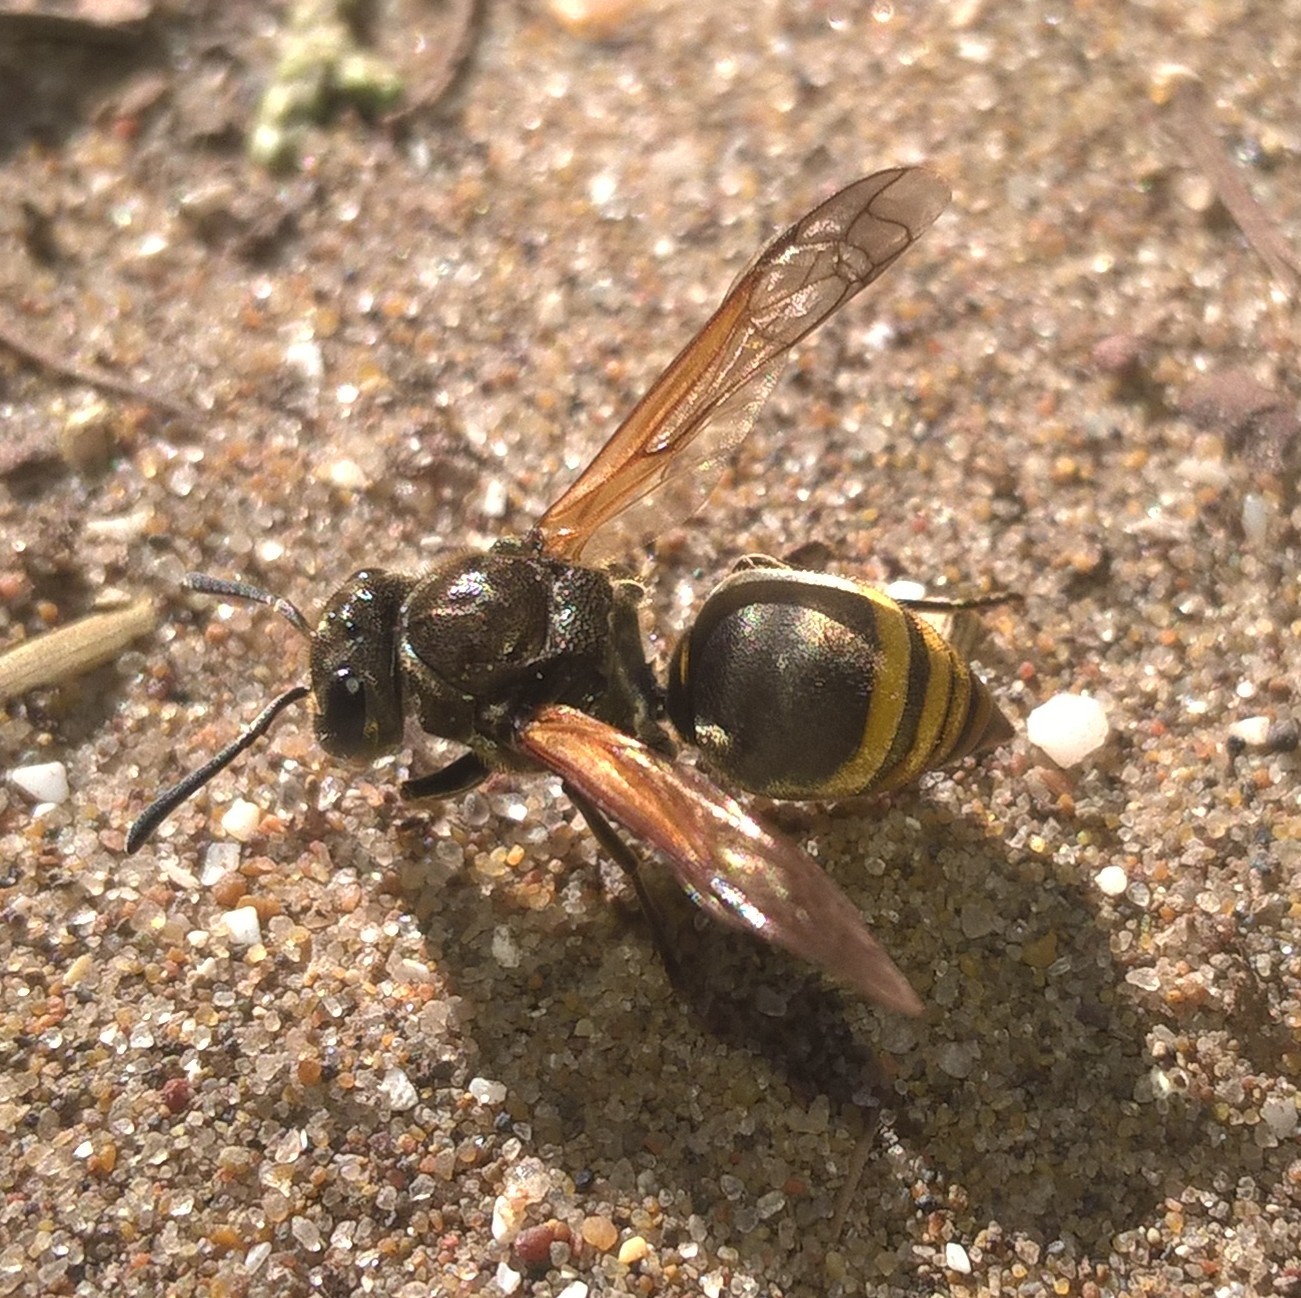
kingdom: Animalia
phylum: Arthropoda
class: Insecta
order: Hymenoptera
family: Vespidae
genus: Brachygastra
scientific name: Brachygastra lecheguana
